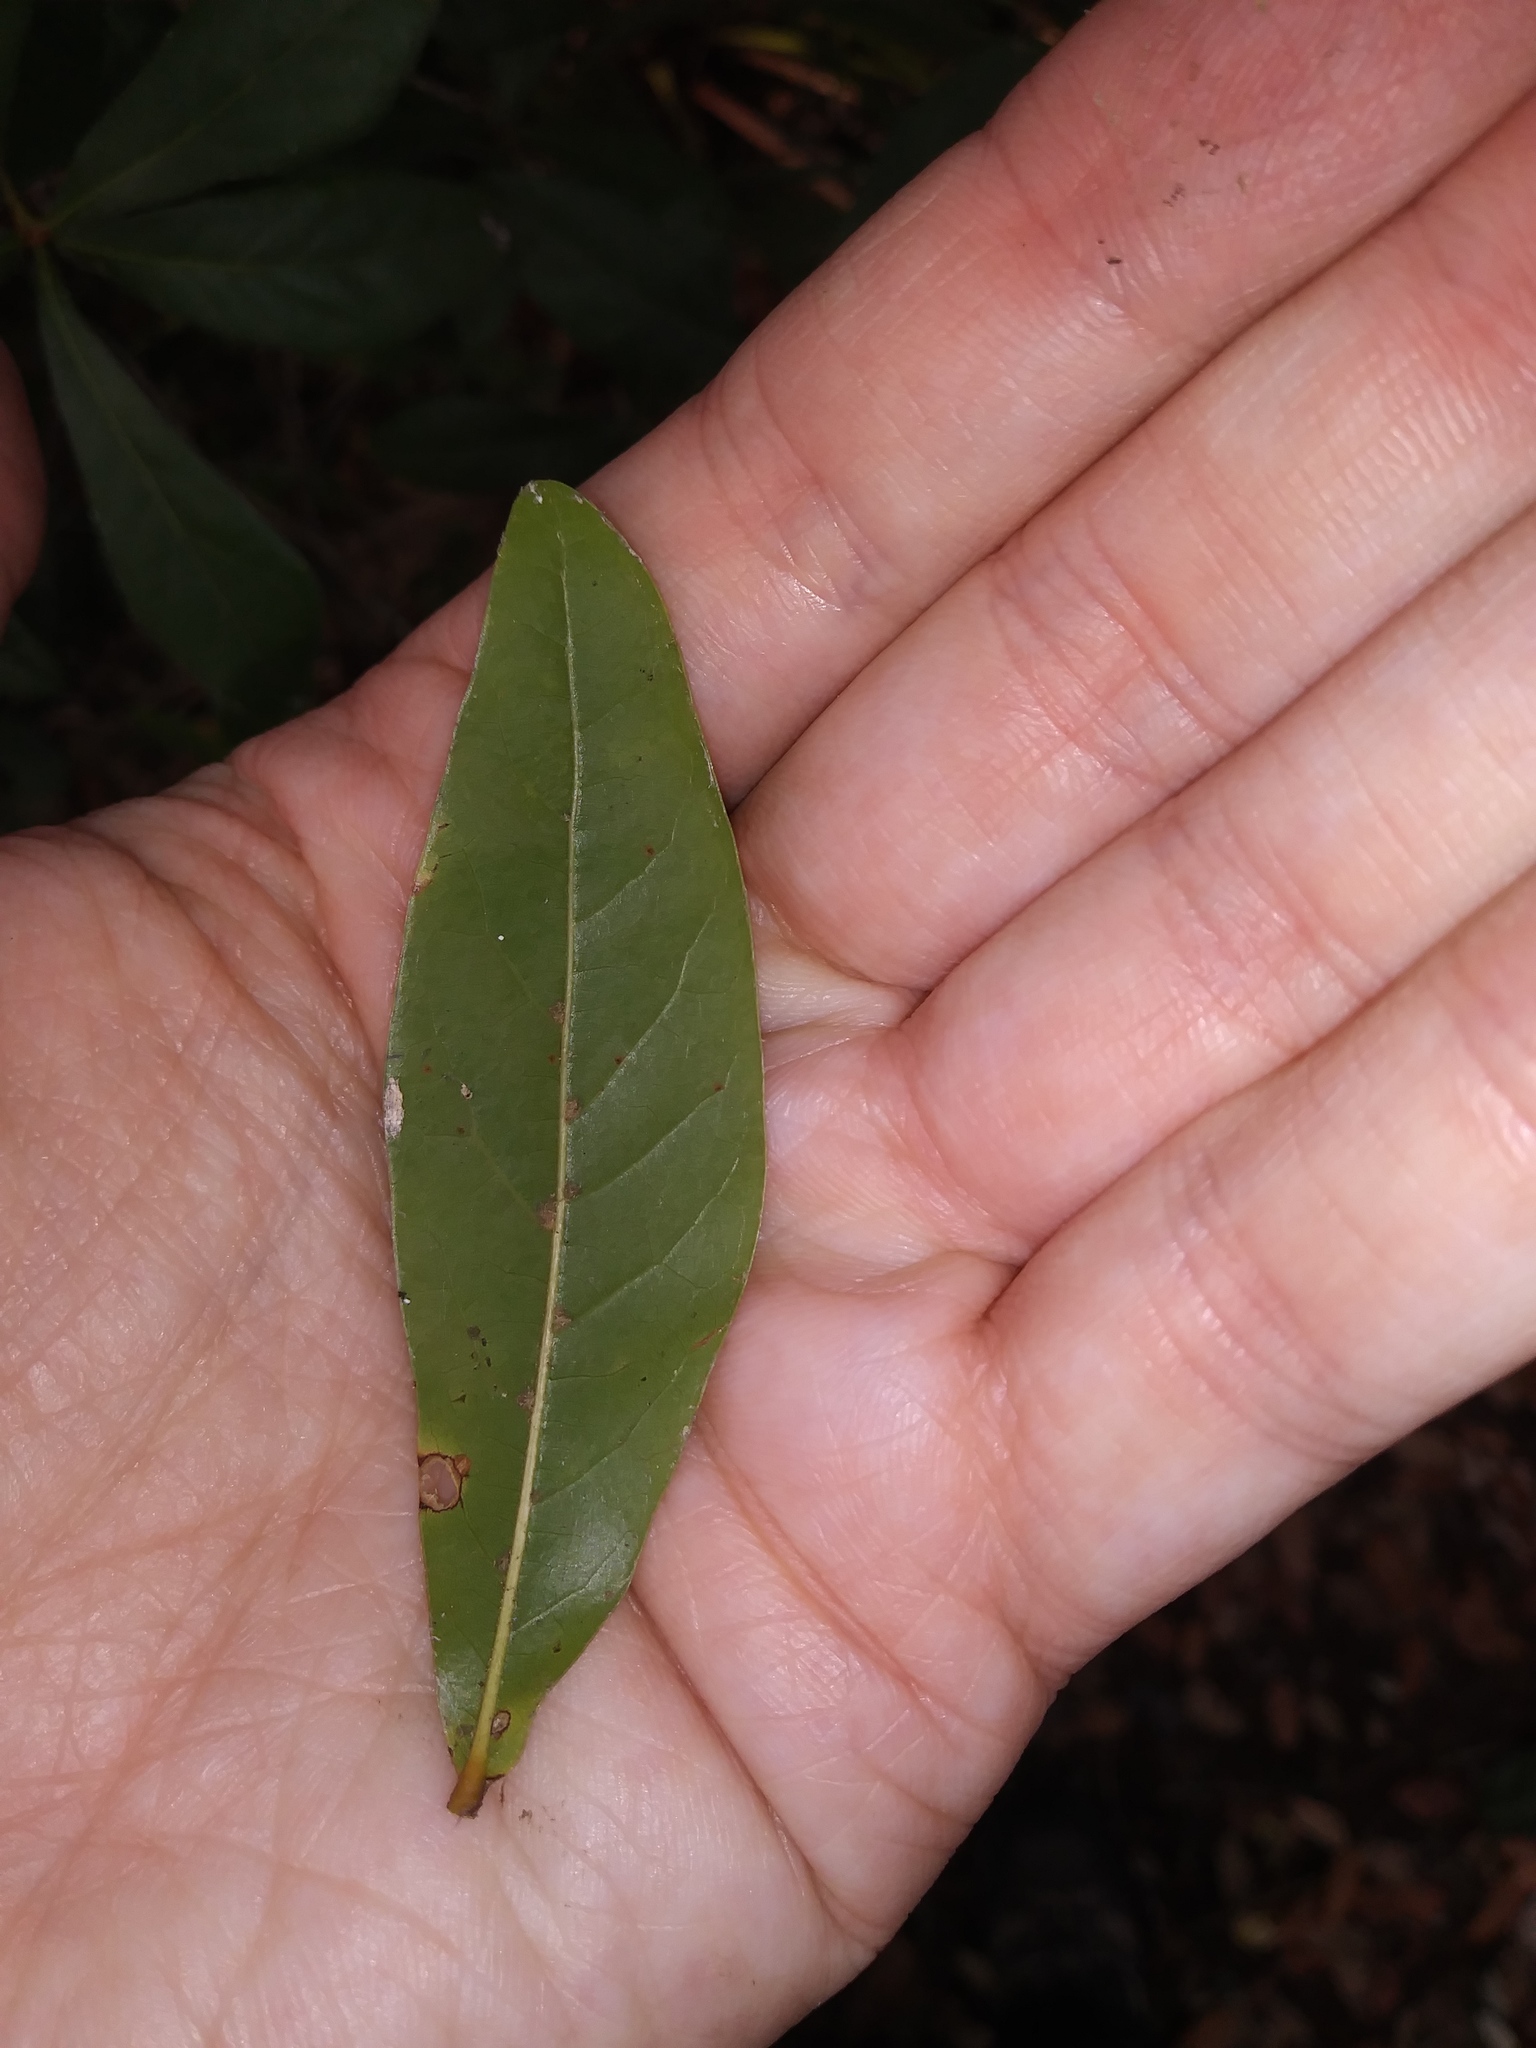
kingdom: Plantae
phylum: Tracheophyta
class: Magnoliopsida
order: Fagales
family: Fagaceae
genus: Quercus
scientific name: Quercus laurifolia
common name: Swamp laurel oak
